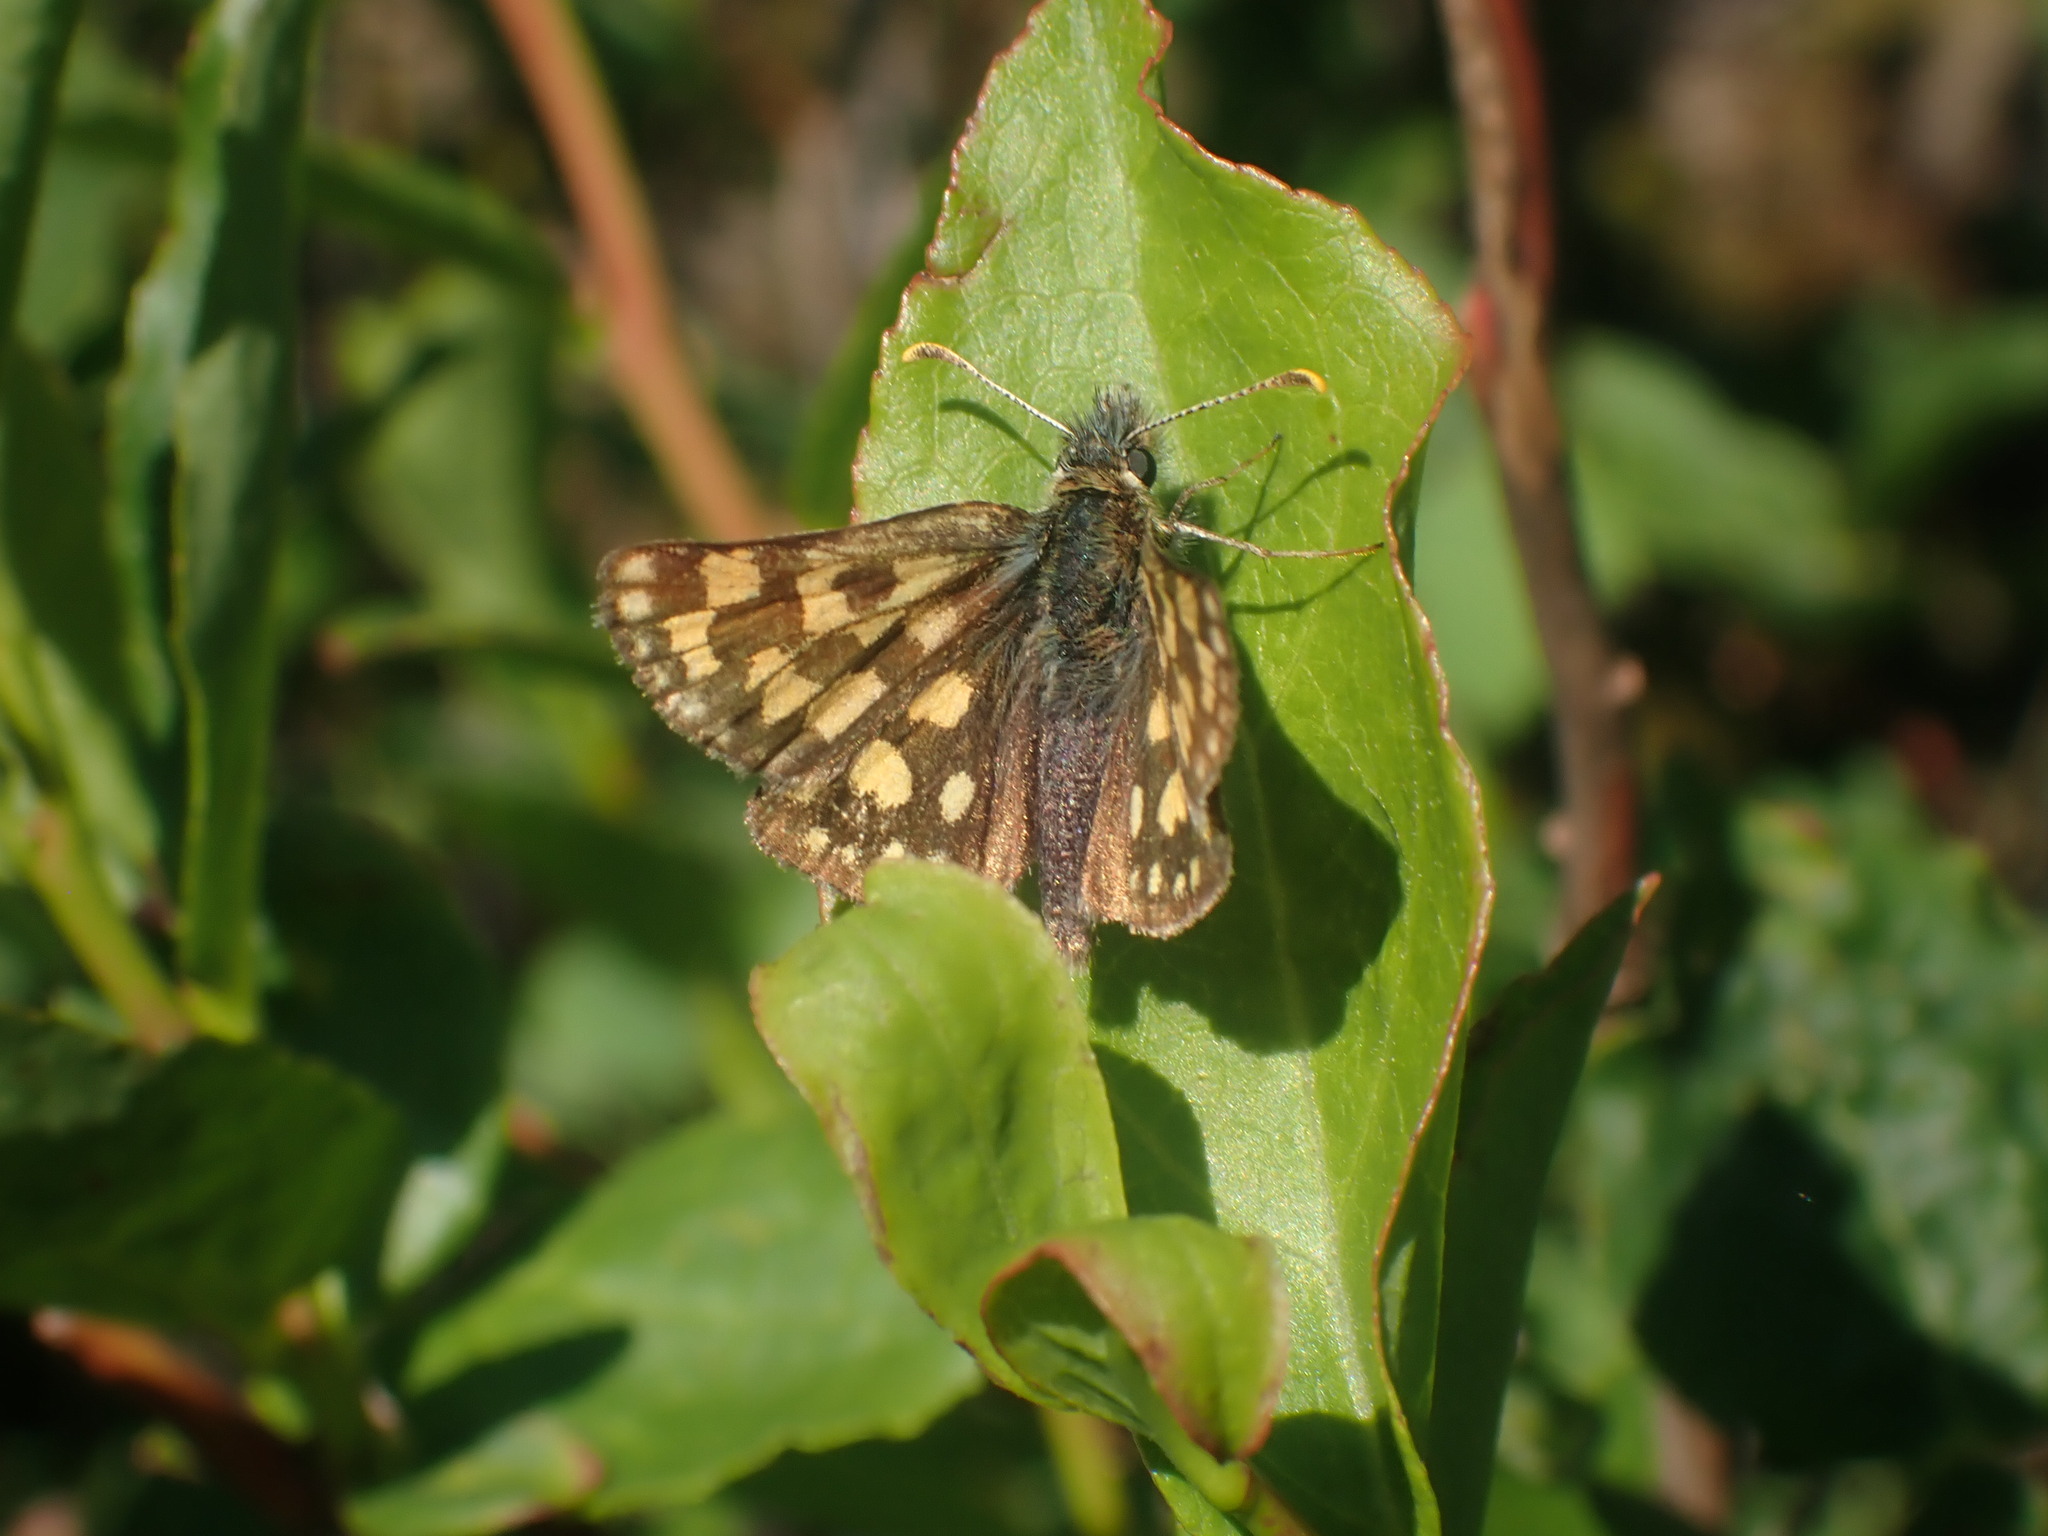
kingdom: Animalia
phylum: Arthropoda
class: Insecta
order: Lepidoptera
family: Hesperiidae
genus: Carterocephalus
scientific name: Carterocephalus skada
